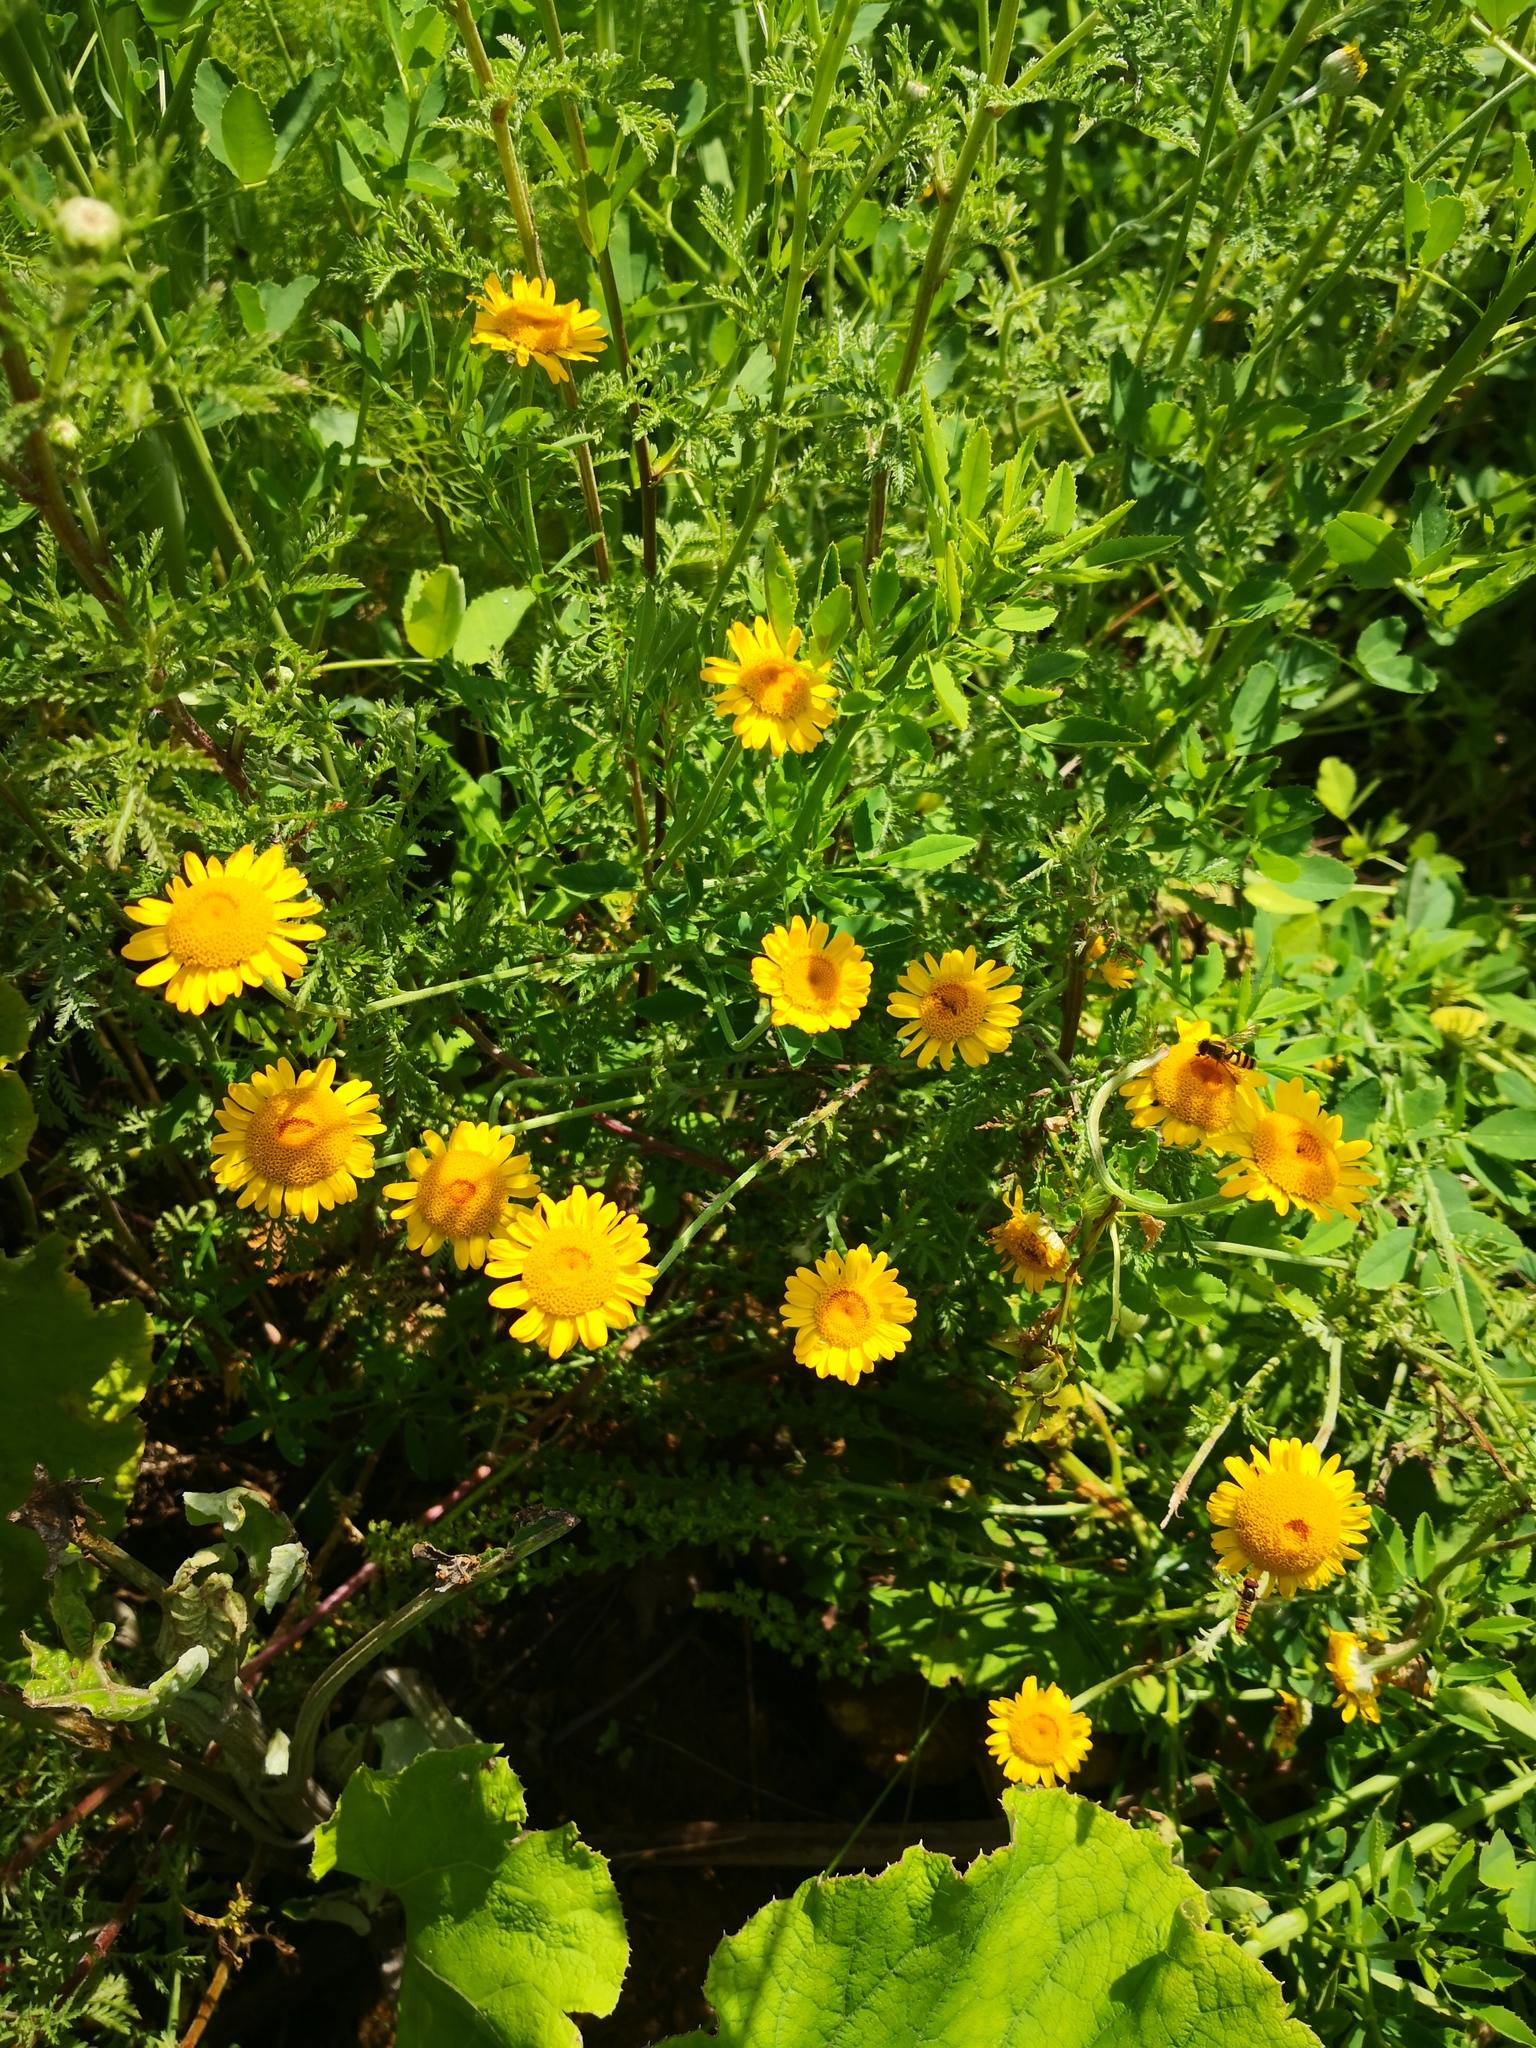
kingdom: Plantae
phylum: Tracheophyta
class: Magnoliopsida
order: Asterales
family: Asteraceae
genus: Cota
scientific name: Cota tinctoria
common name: Golden chamomile
